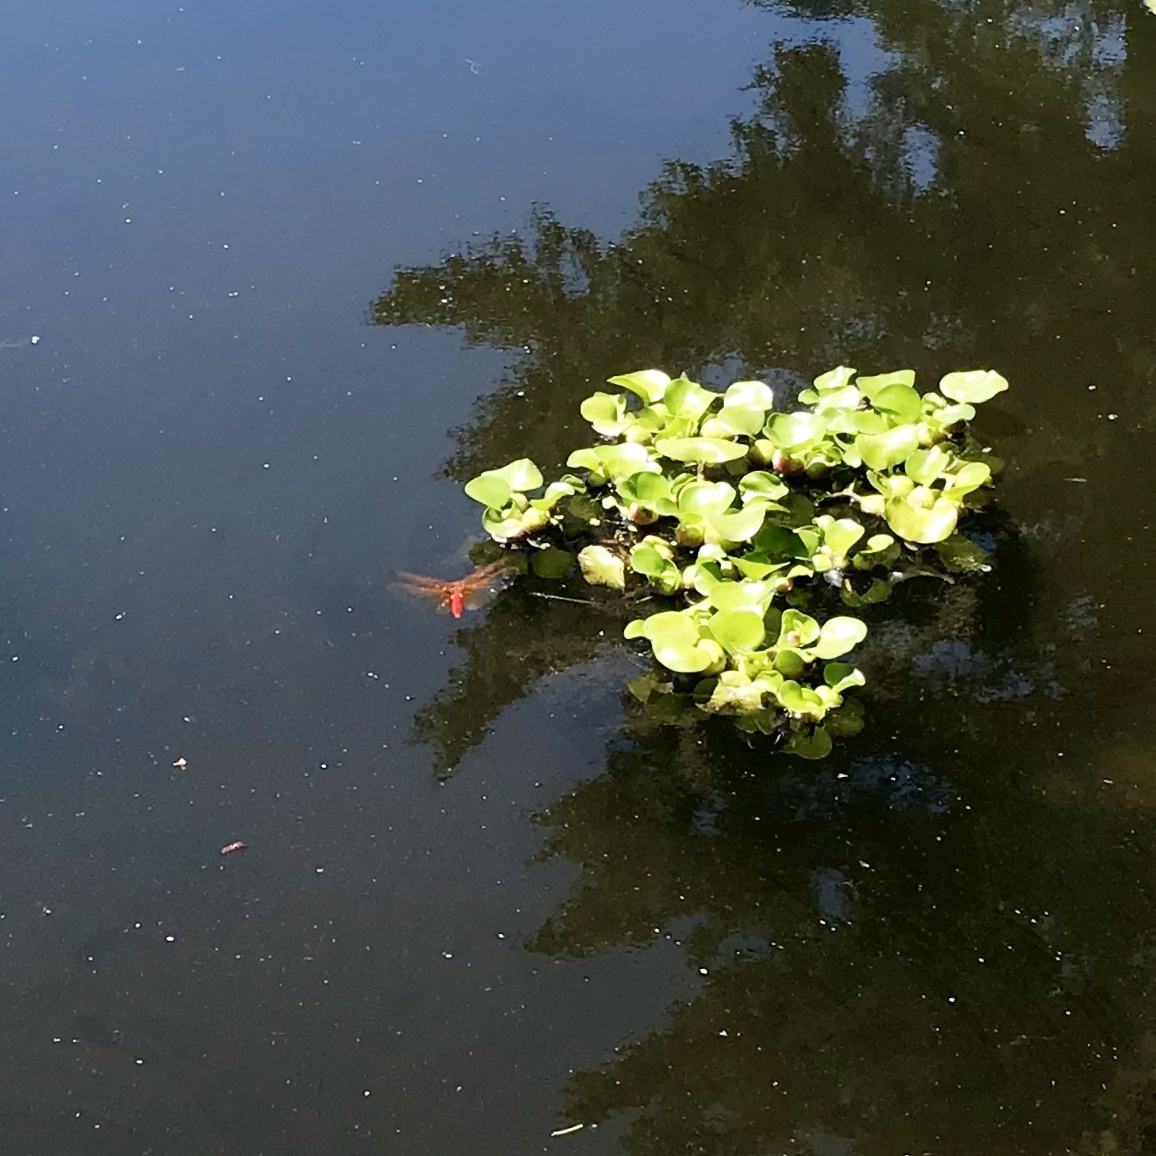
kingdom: Animalia
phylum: Arthropoda
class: Insecta
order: Odonata
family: Libellulidae
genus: Sympetrum
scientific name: Sympetrum illotum
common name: Cardinal meadowhawk
